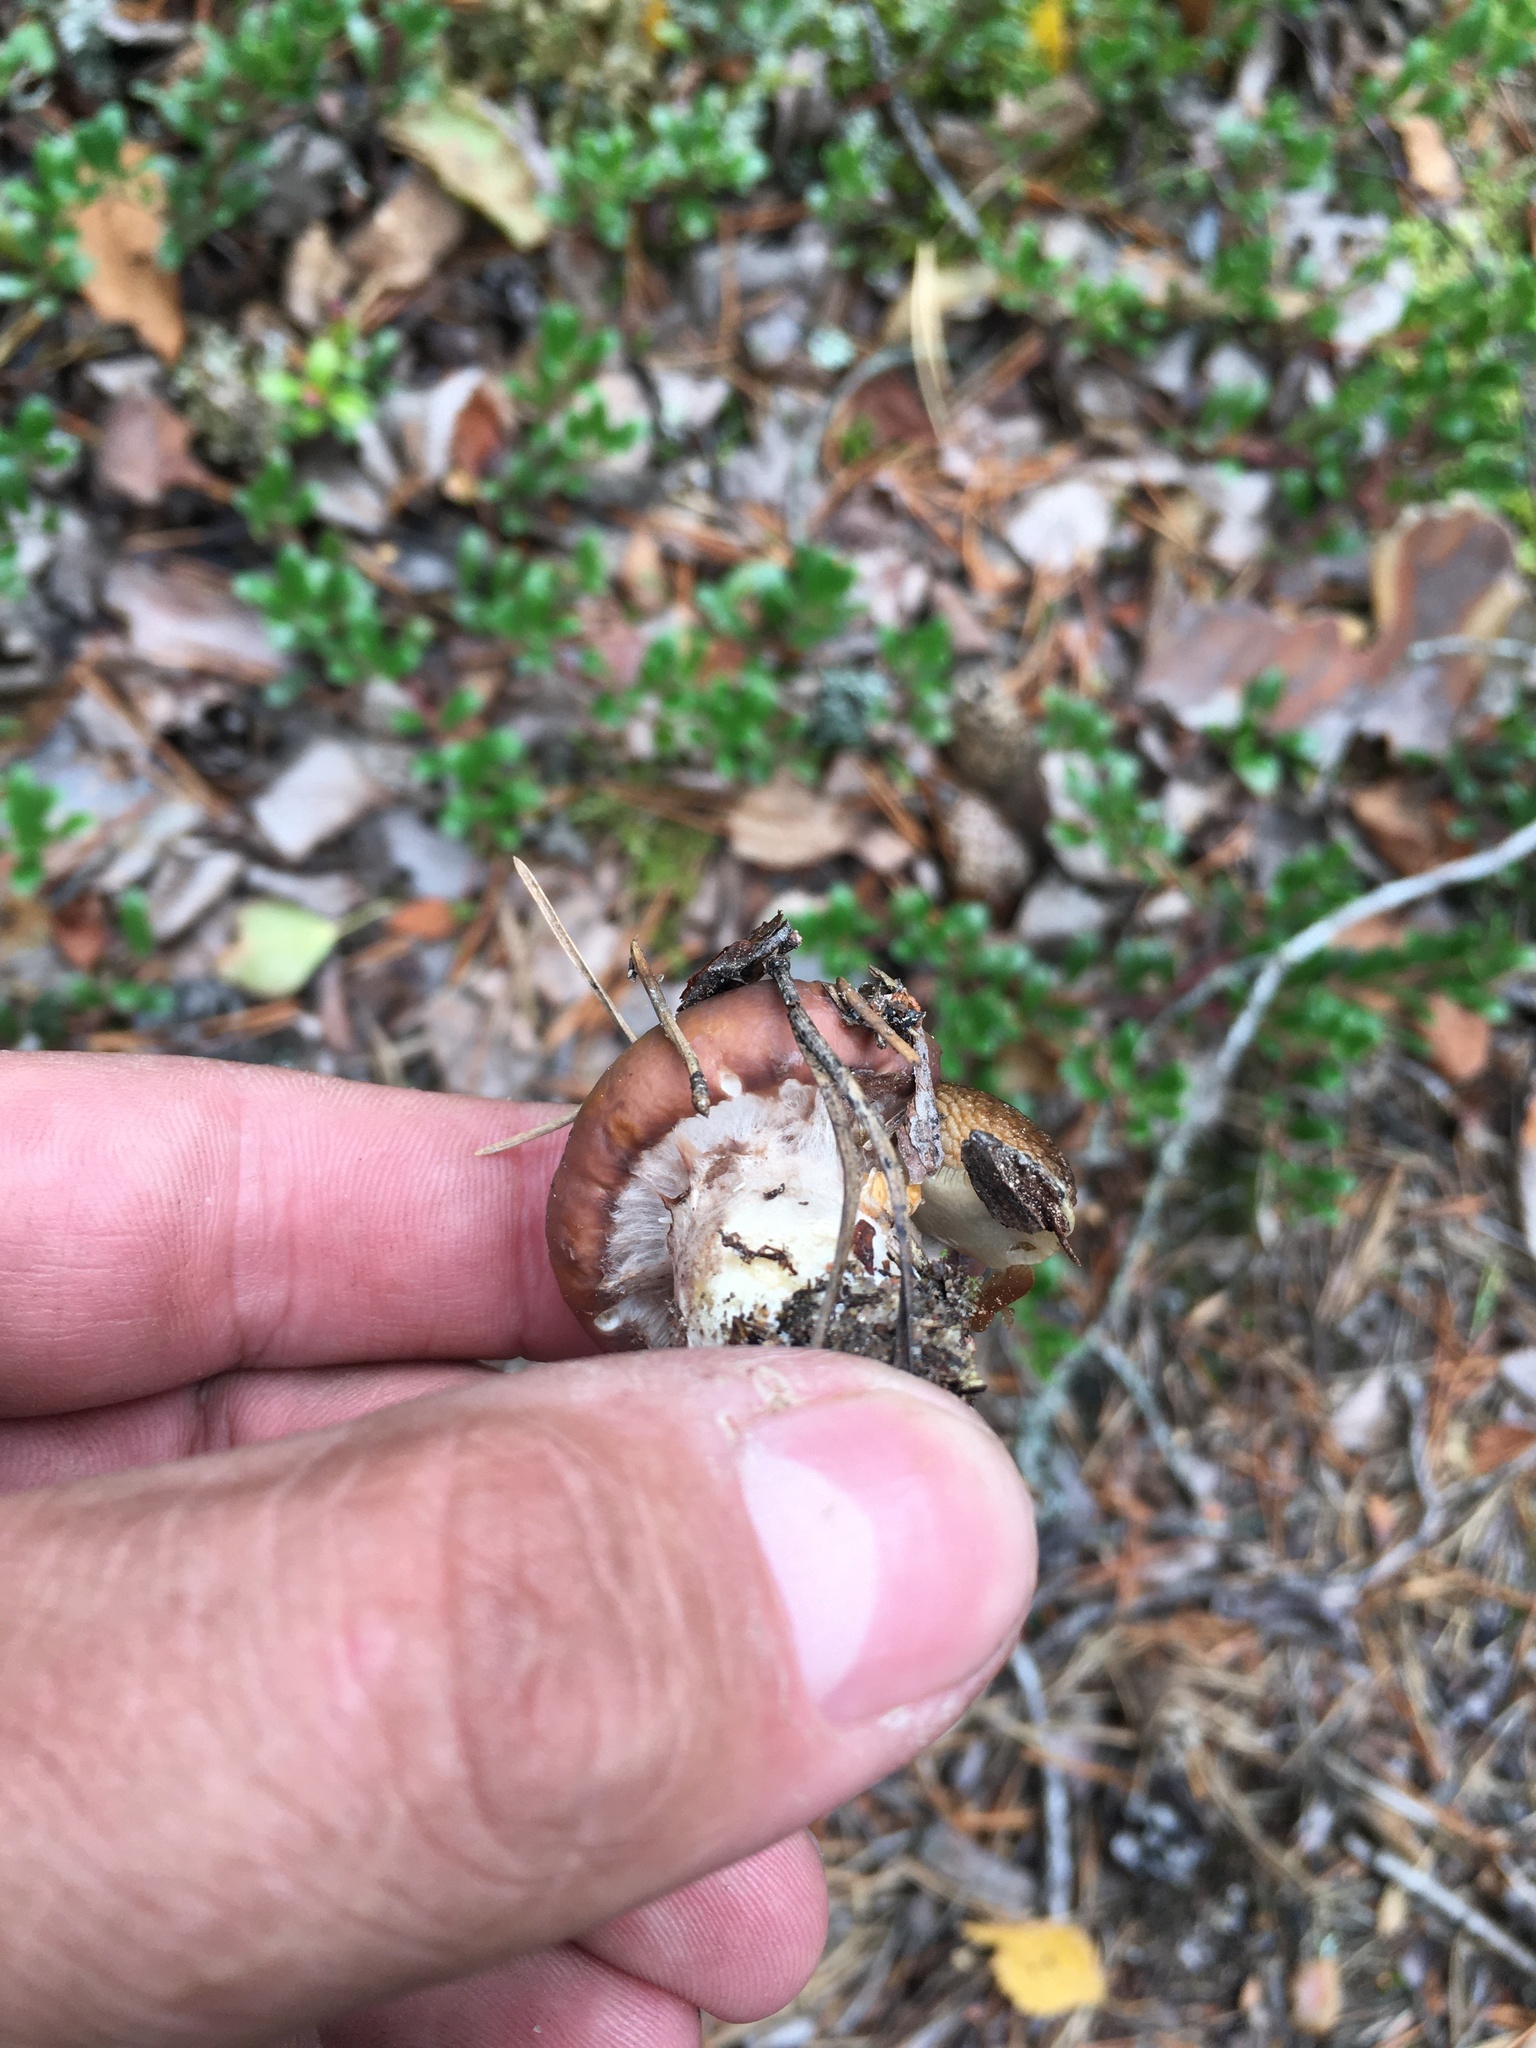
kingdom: Fungi
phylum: Basidiomycota
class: Agaricomycetes
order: Boletales
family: Suillaceae
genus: Suillus
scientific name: Suillus luteus
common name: Slippery jack
